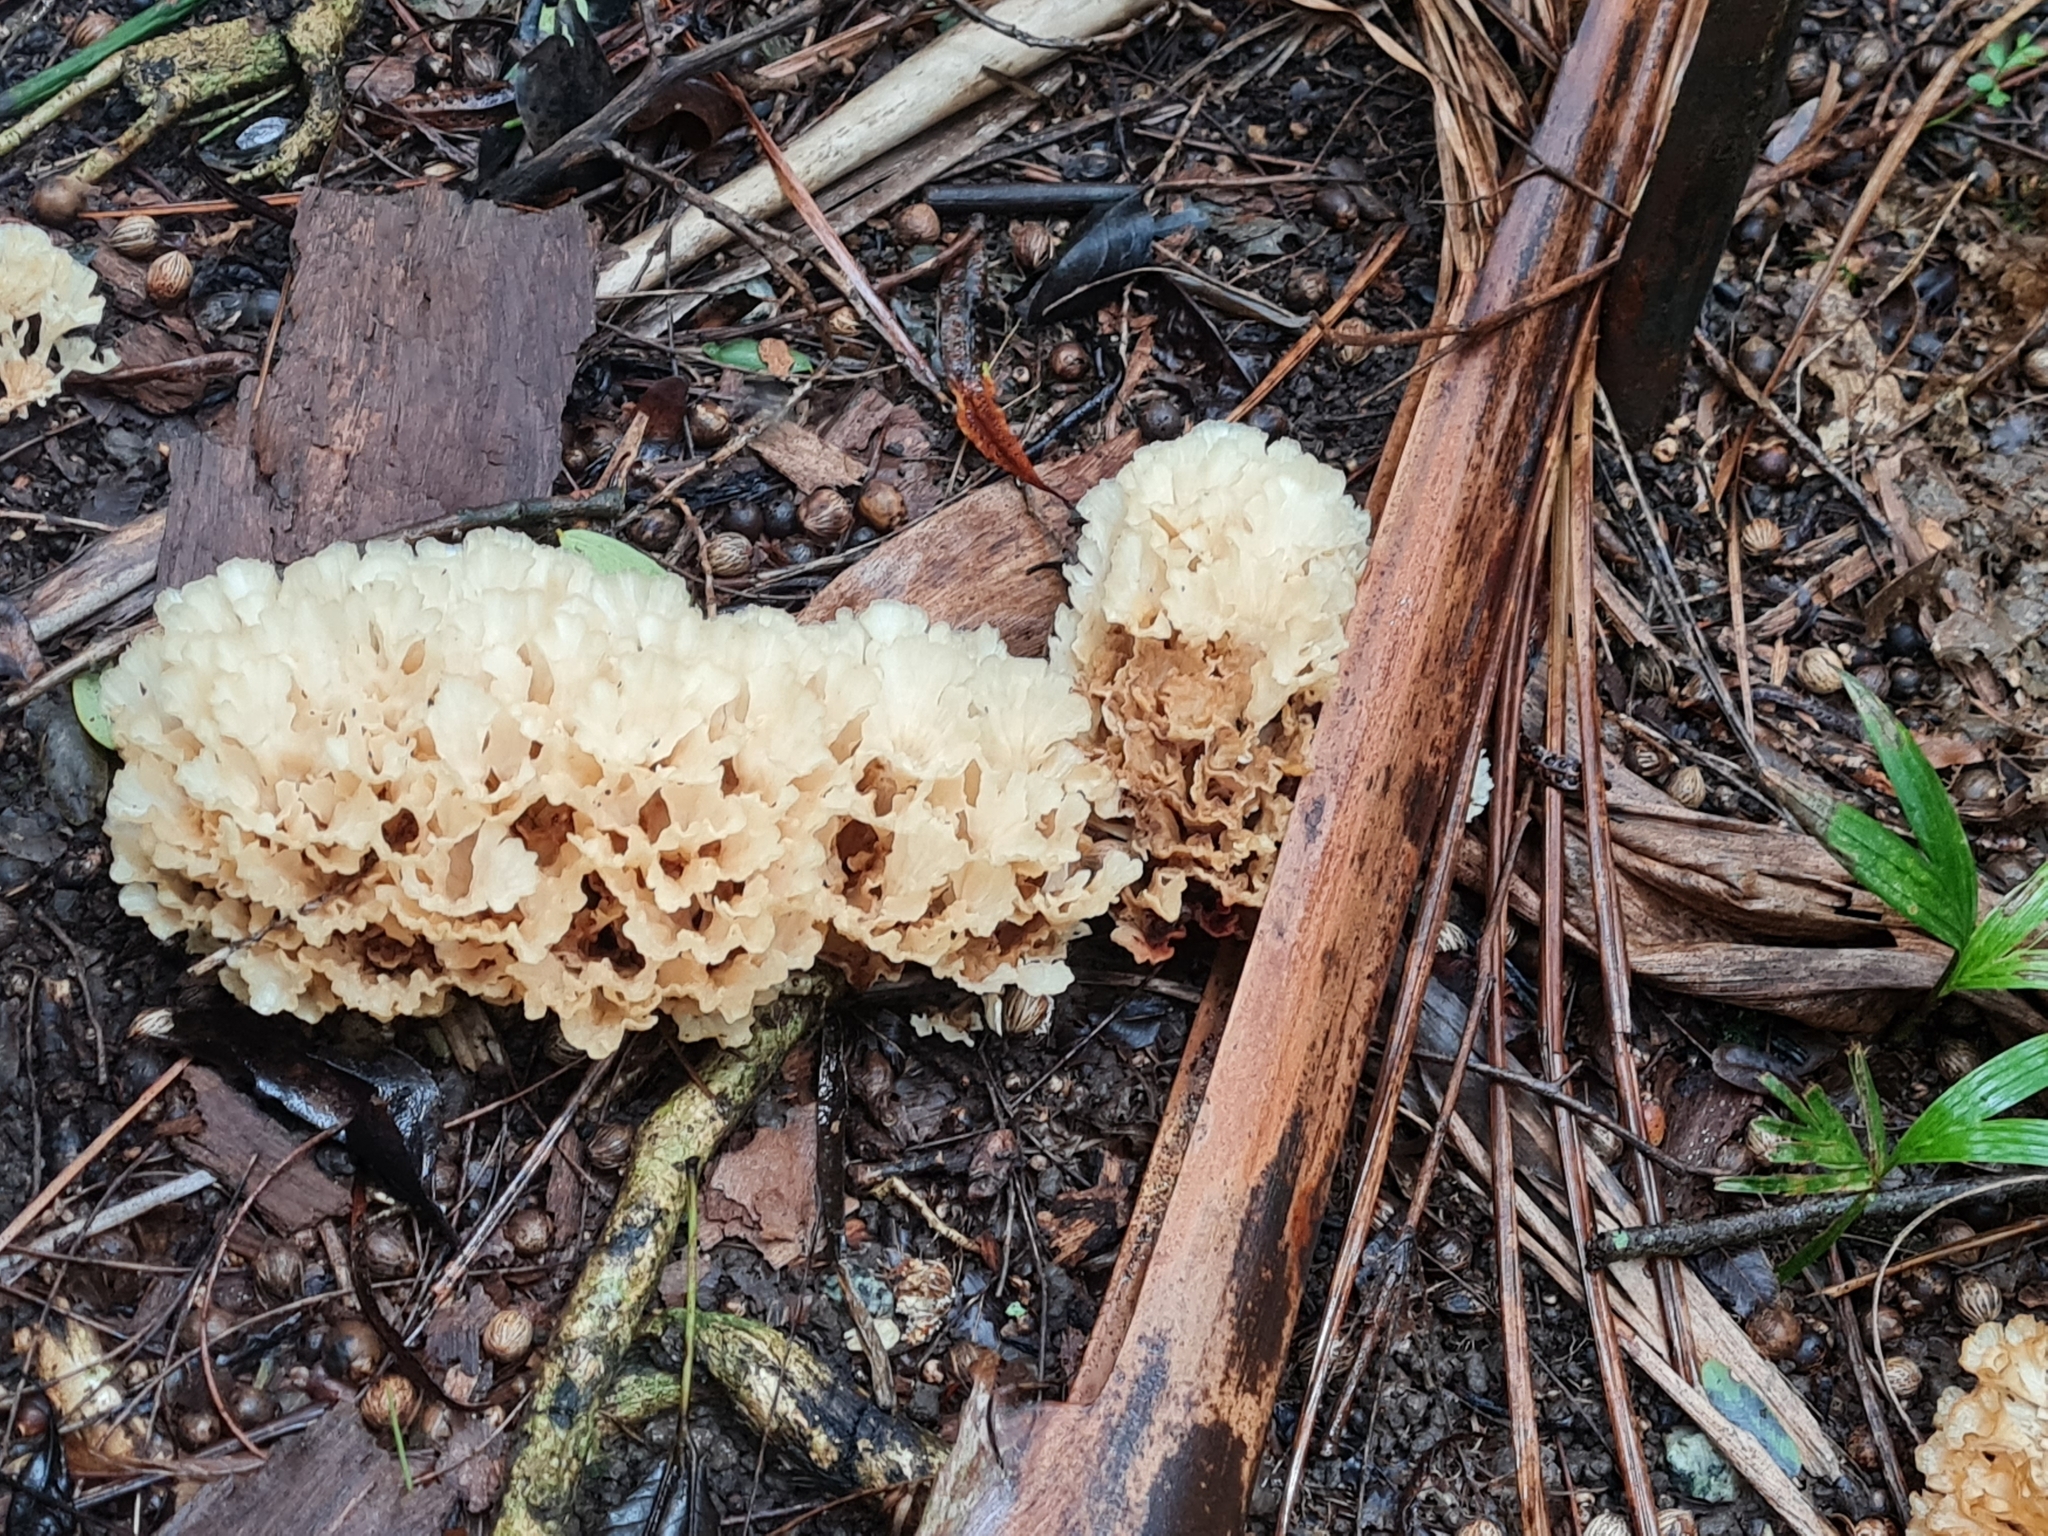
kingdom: Fungi
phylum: Basidiomycota
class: Agaricomycetes
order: Polyporales
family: Irpicaceae
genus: Irpex
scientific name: Irpex rosettiformis
